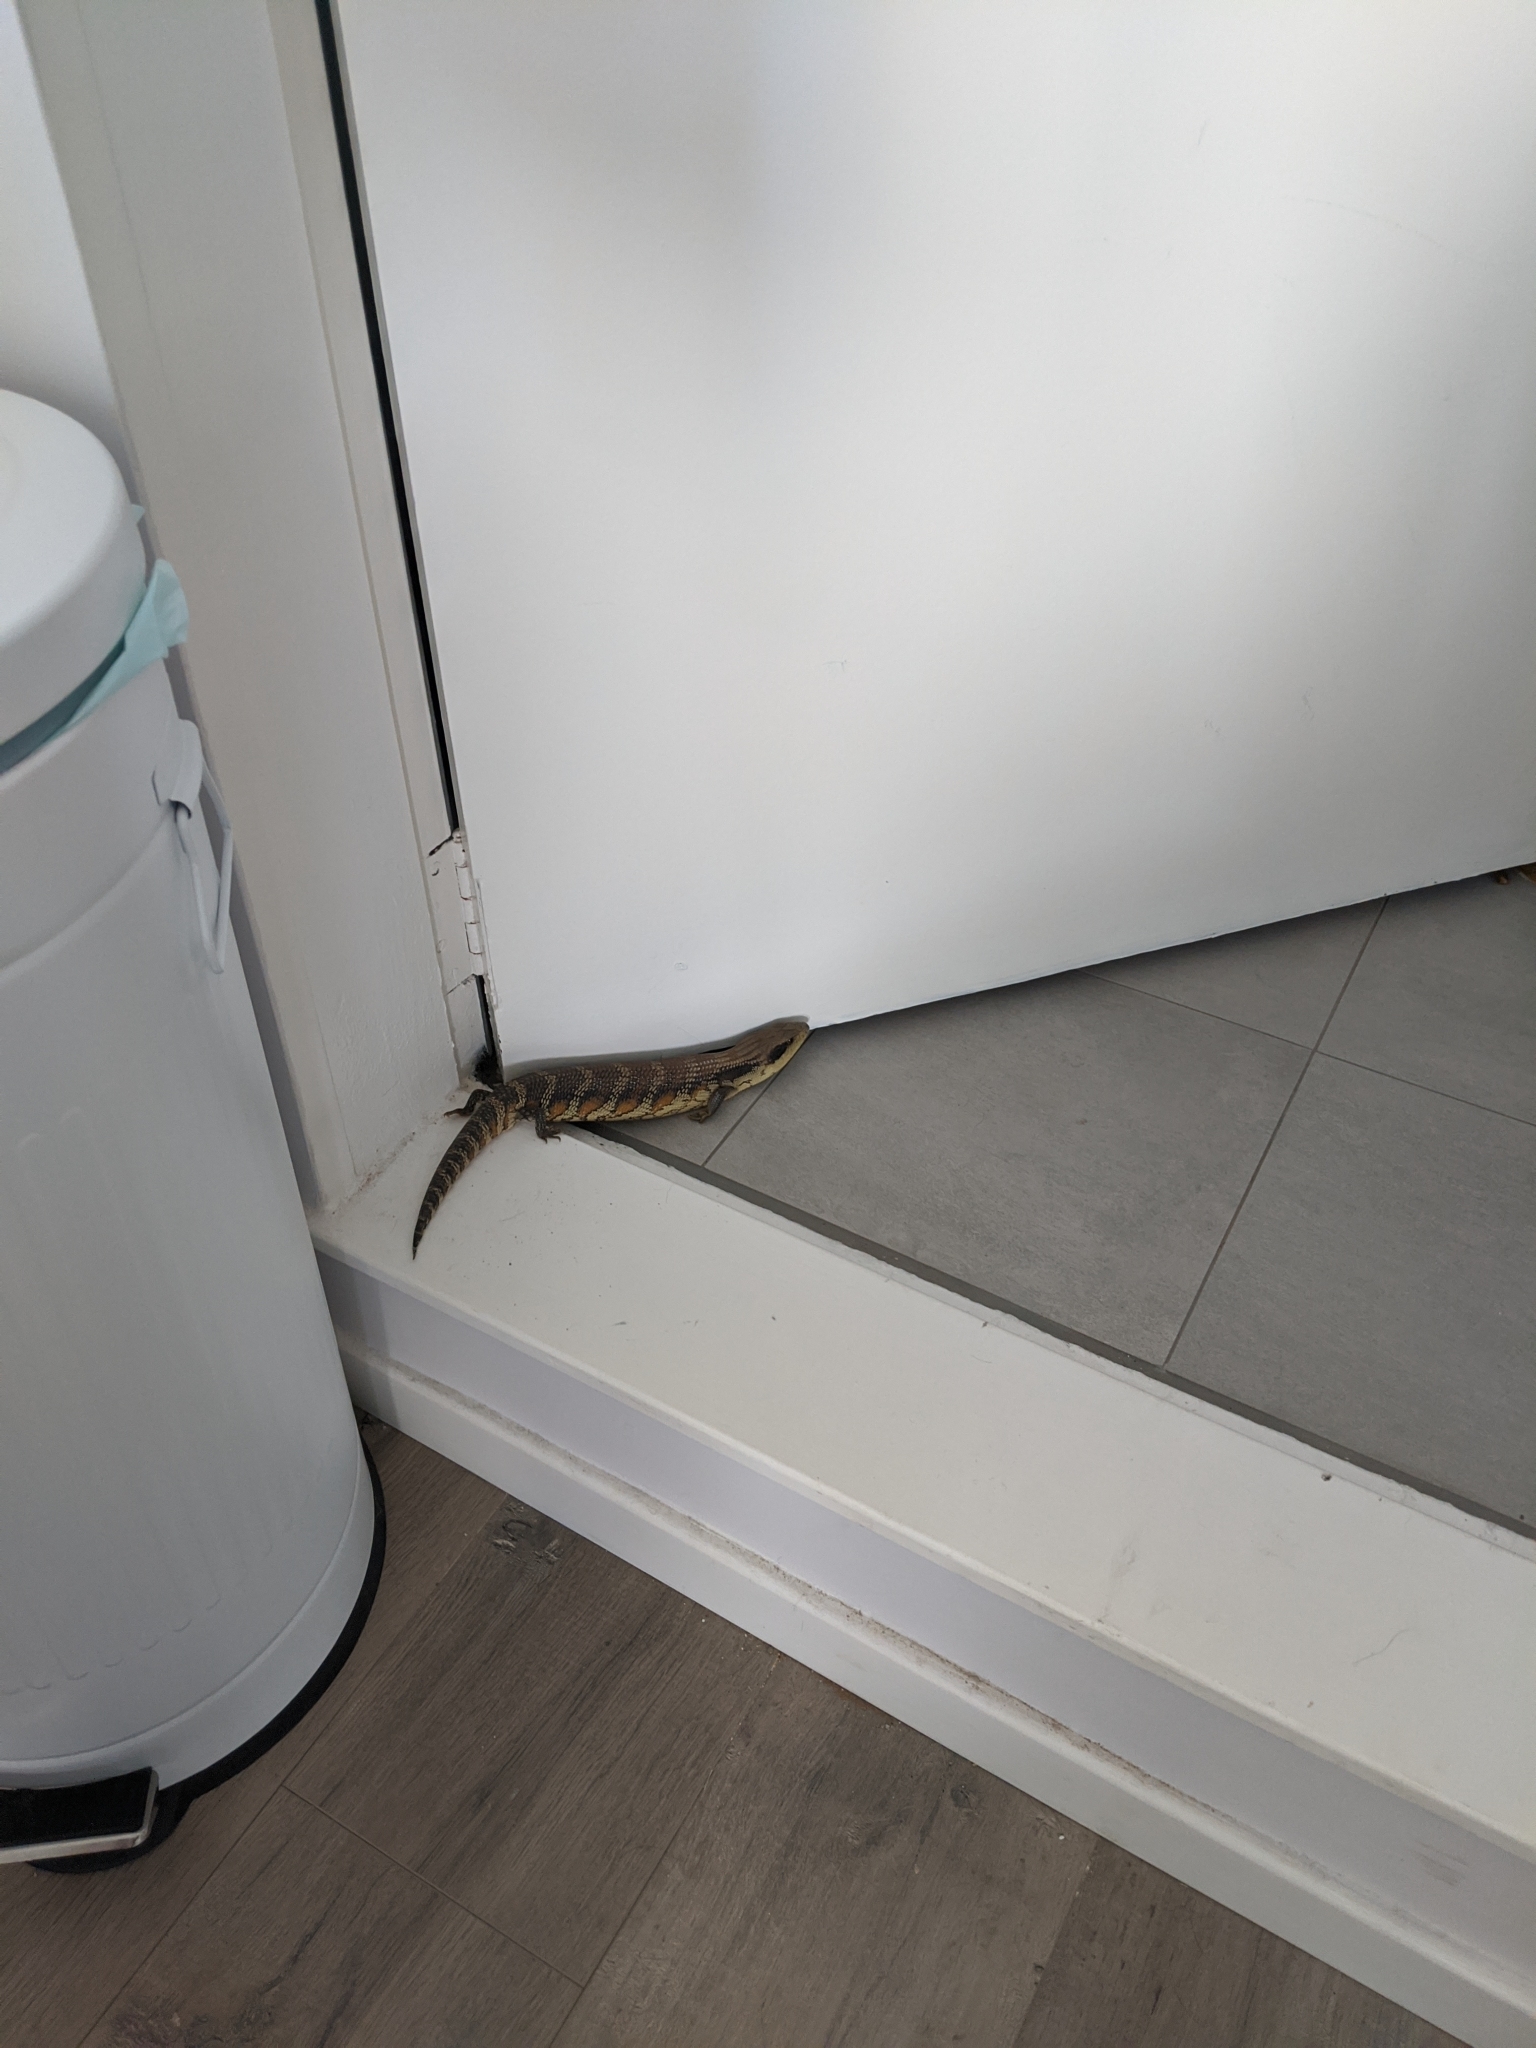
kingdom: Animalia
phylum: Chordata
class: Squamata
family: Scincidae
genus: Tiliqua
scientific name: Tiliqua scincoides
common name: Common bluetongue
